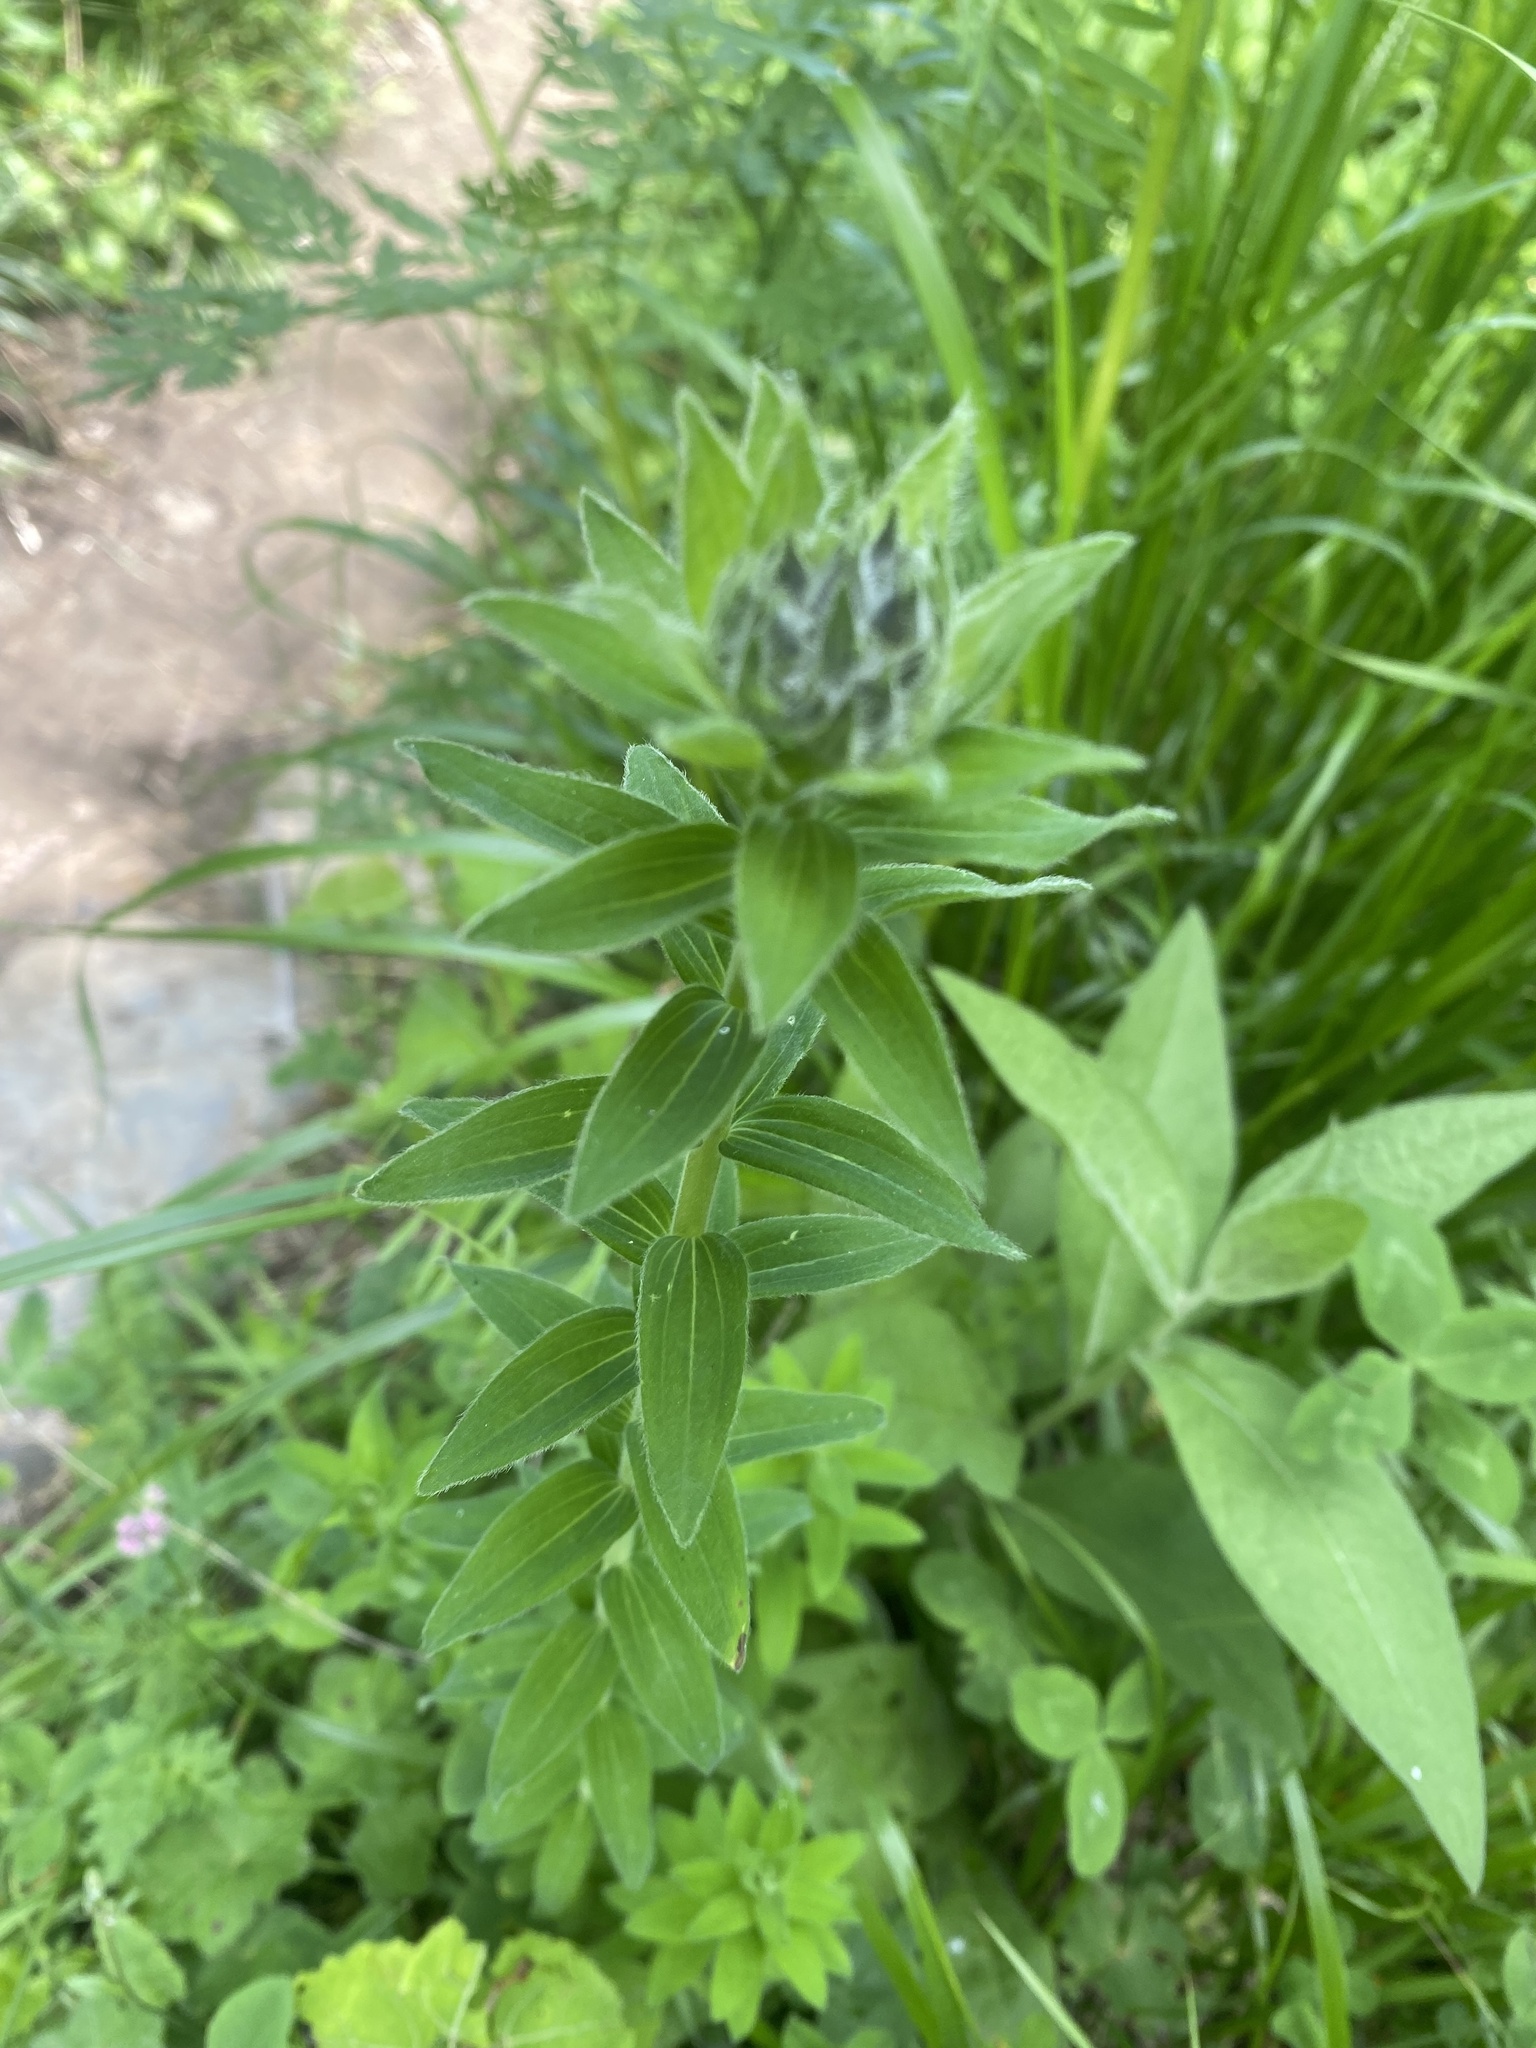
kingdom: Plantae
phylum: Tracheophyta
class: Magnoliopsida
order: Malpighiales
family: Linaceae
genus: Linum
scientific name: Linum hypericifolium
